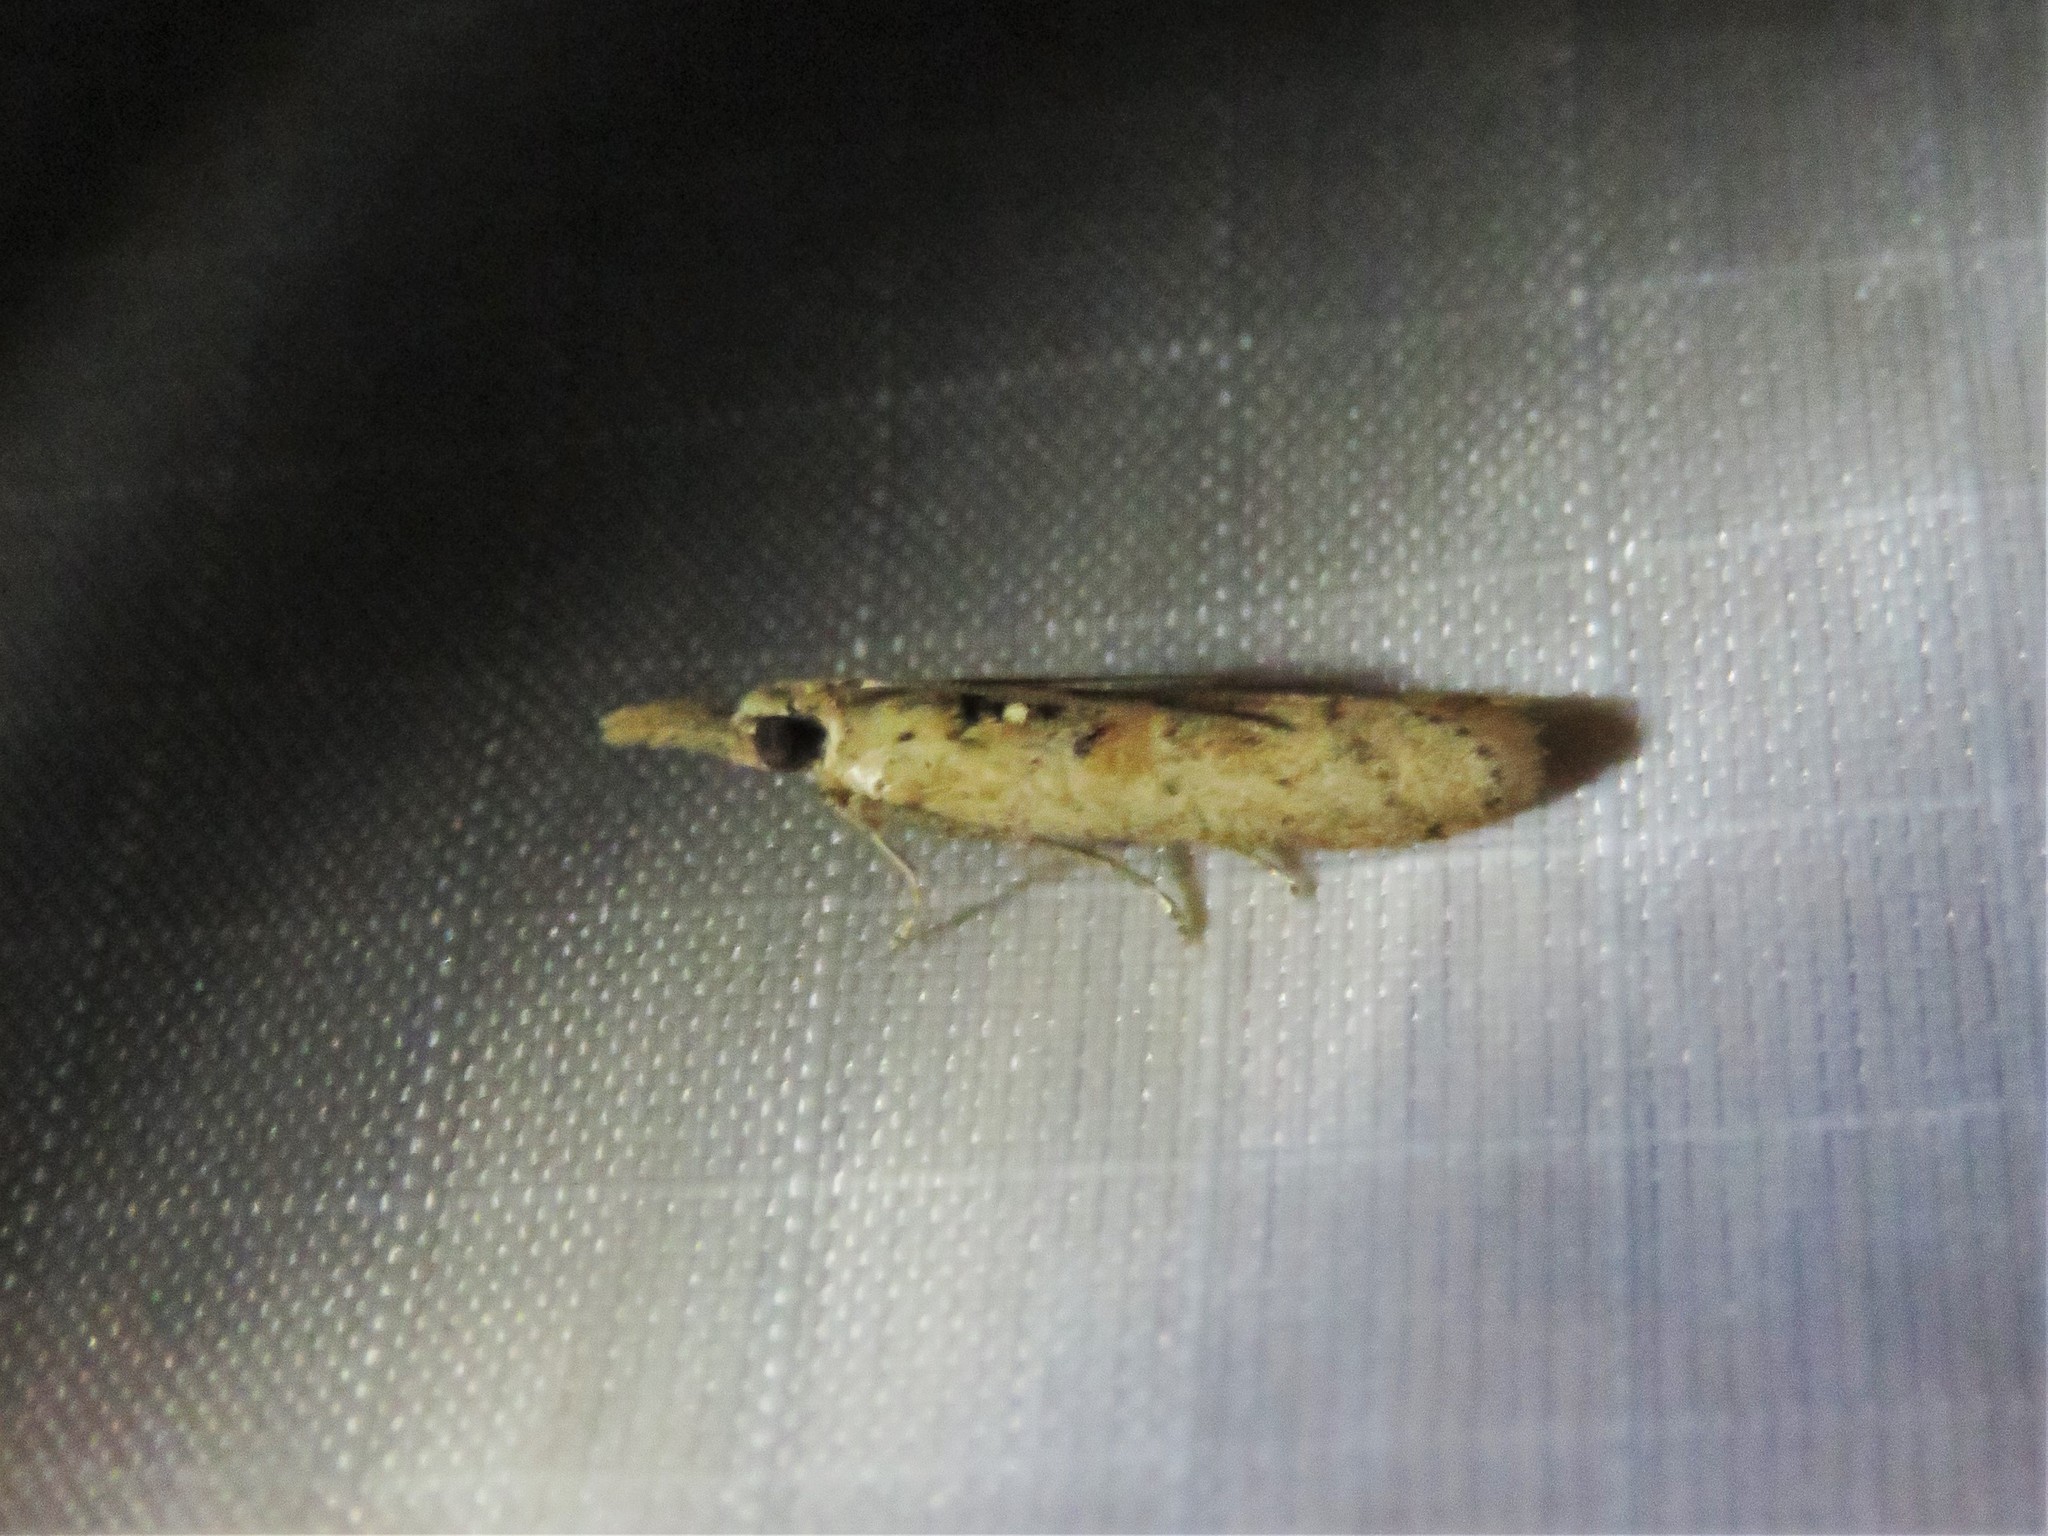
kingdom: Animalia
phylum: Arthropoda
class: Insecta
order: Lepidoptera
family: Pyralidae
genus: Macrorrhinia
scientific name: Macrorrhinia endonephele
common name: Alligator weed stemborer moth
